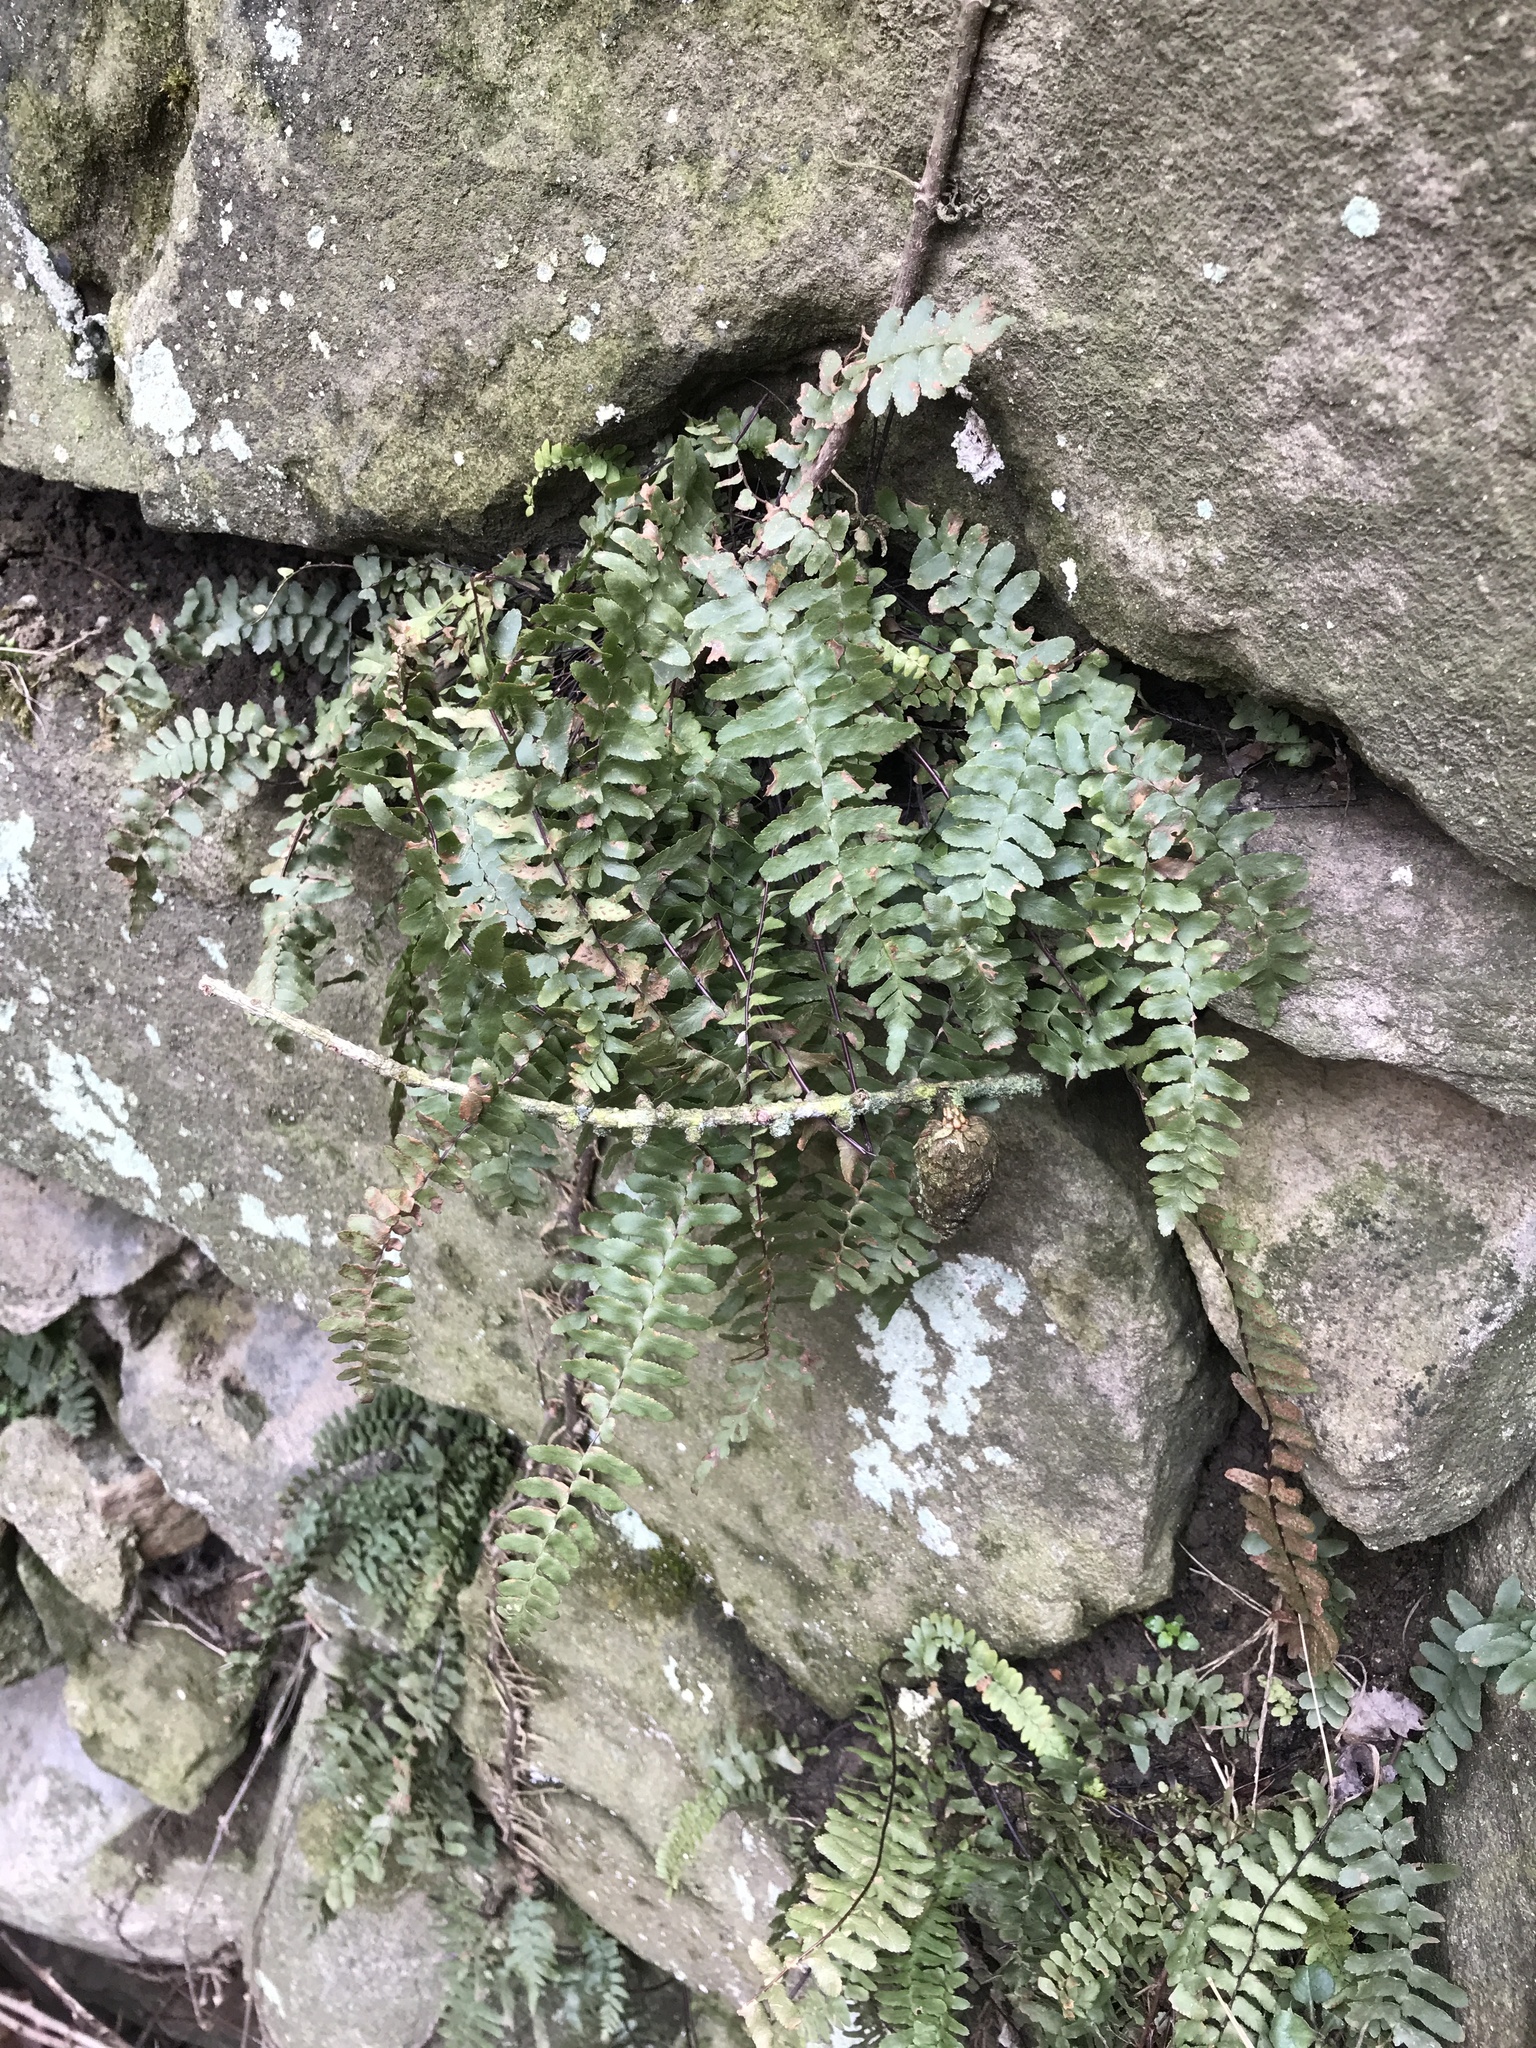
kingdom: Plantae
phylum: Tracheophyta
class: Polypodiopsida
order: Polypodiales
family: Aspleniaceae
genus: Asplenium
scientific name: Asplenium platyneuron
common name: Ebony spleenwort
